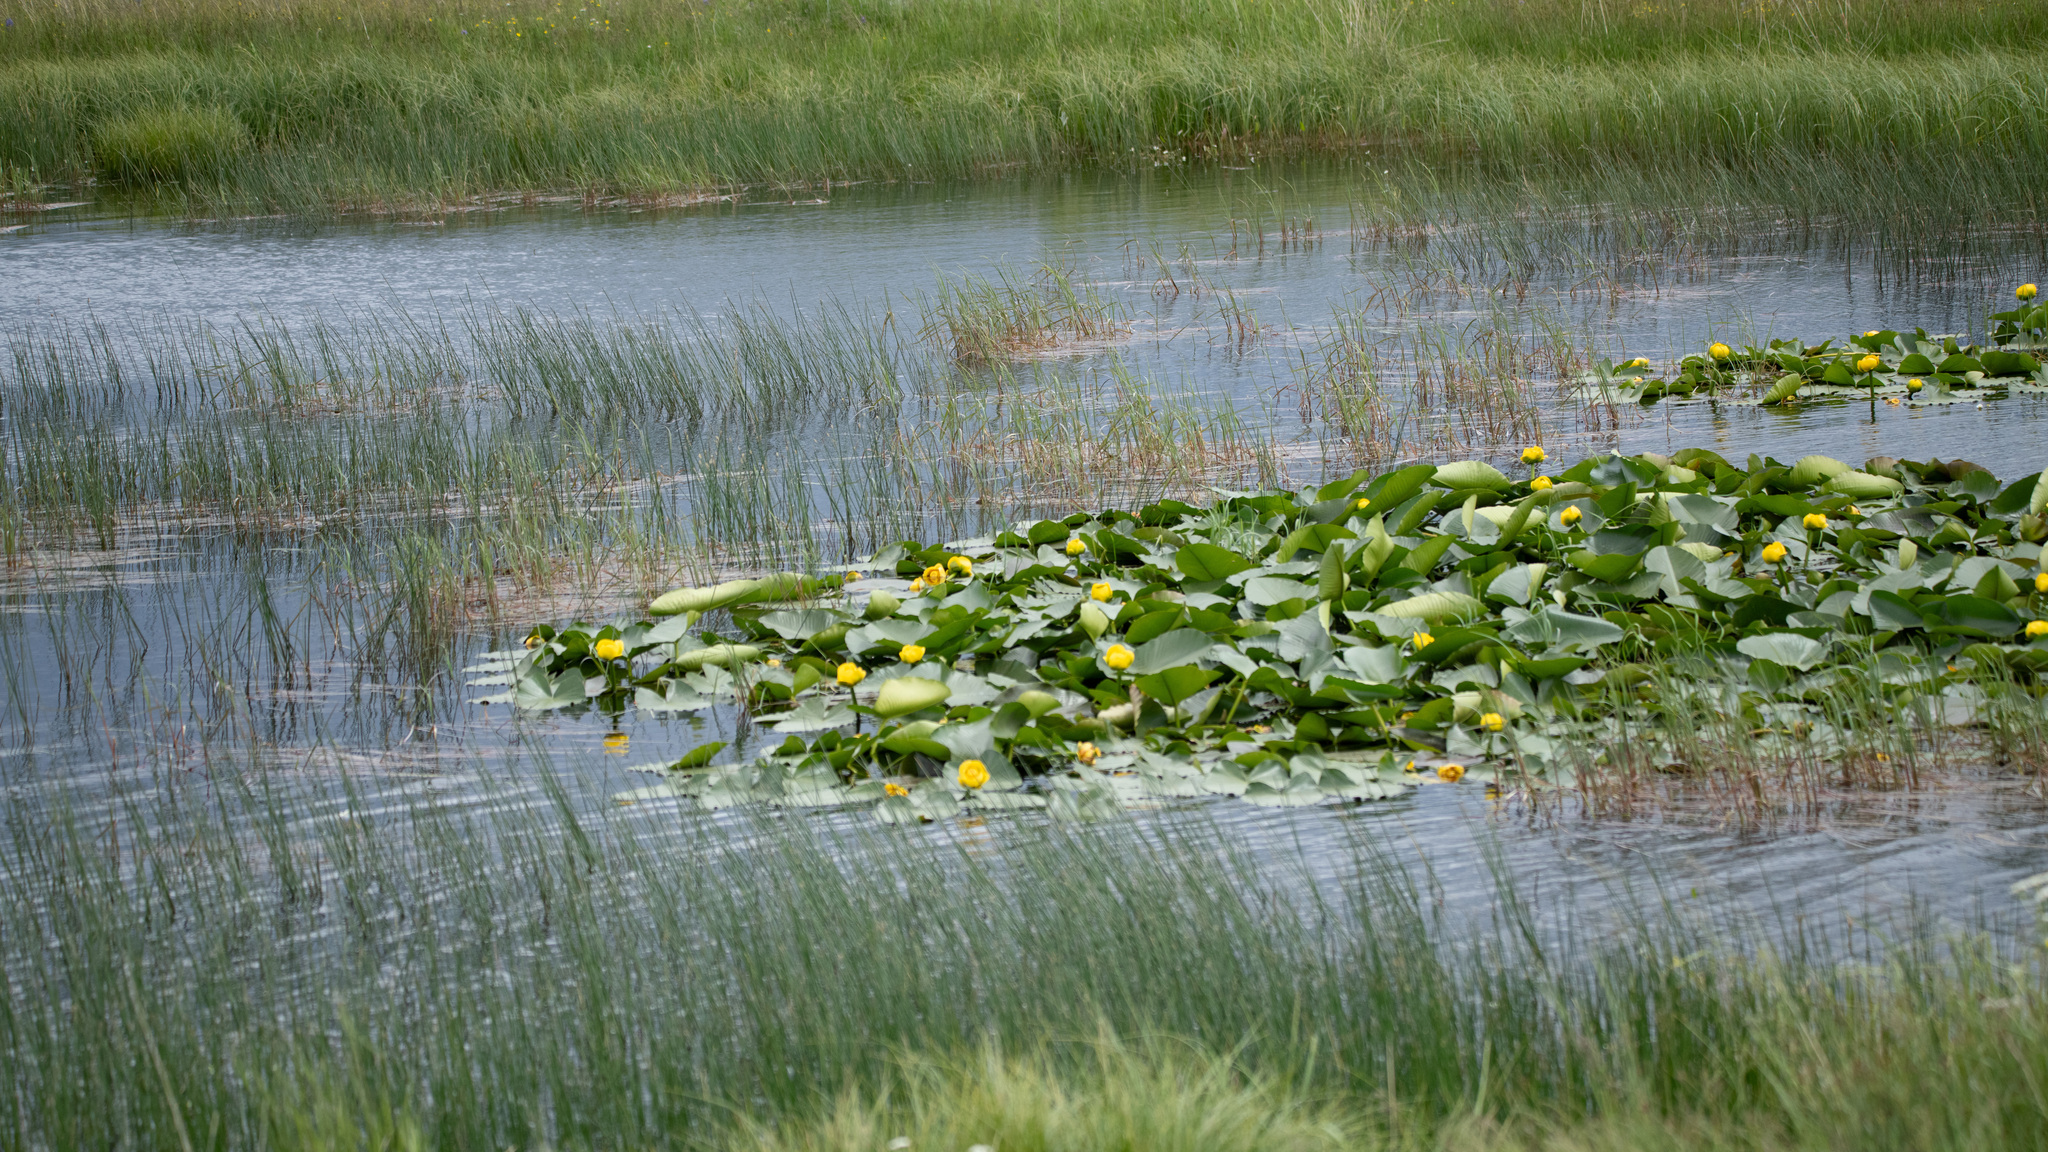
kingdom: Plantae
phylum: Tracheophyta
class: Magnoliopsida
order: Nymphaeales
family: Nymphaeaceae
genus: Nuphar
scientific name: Nuphar polysepala
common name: Rocky mountain cow-lily
